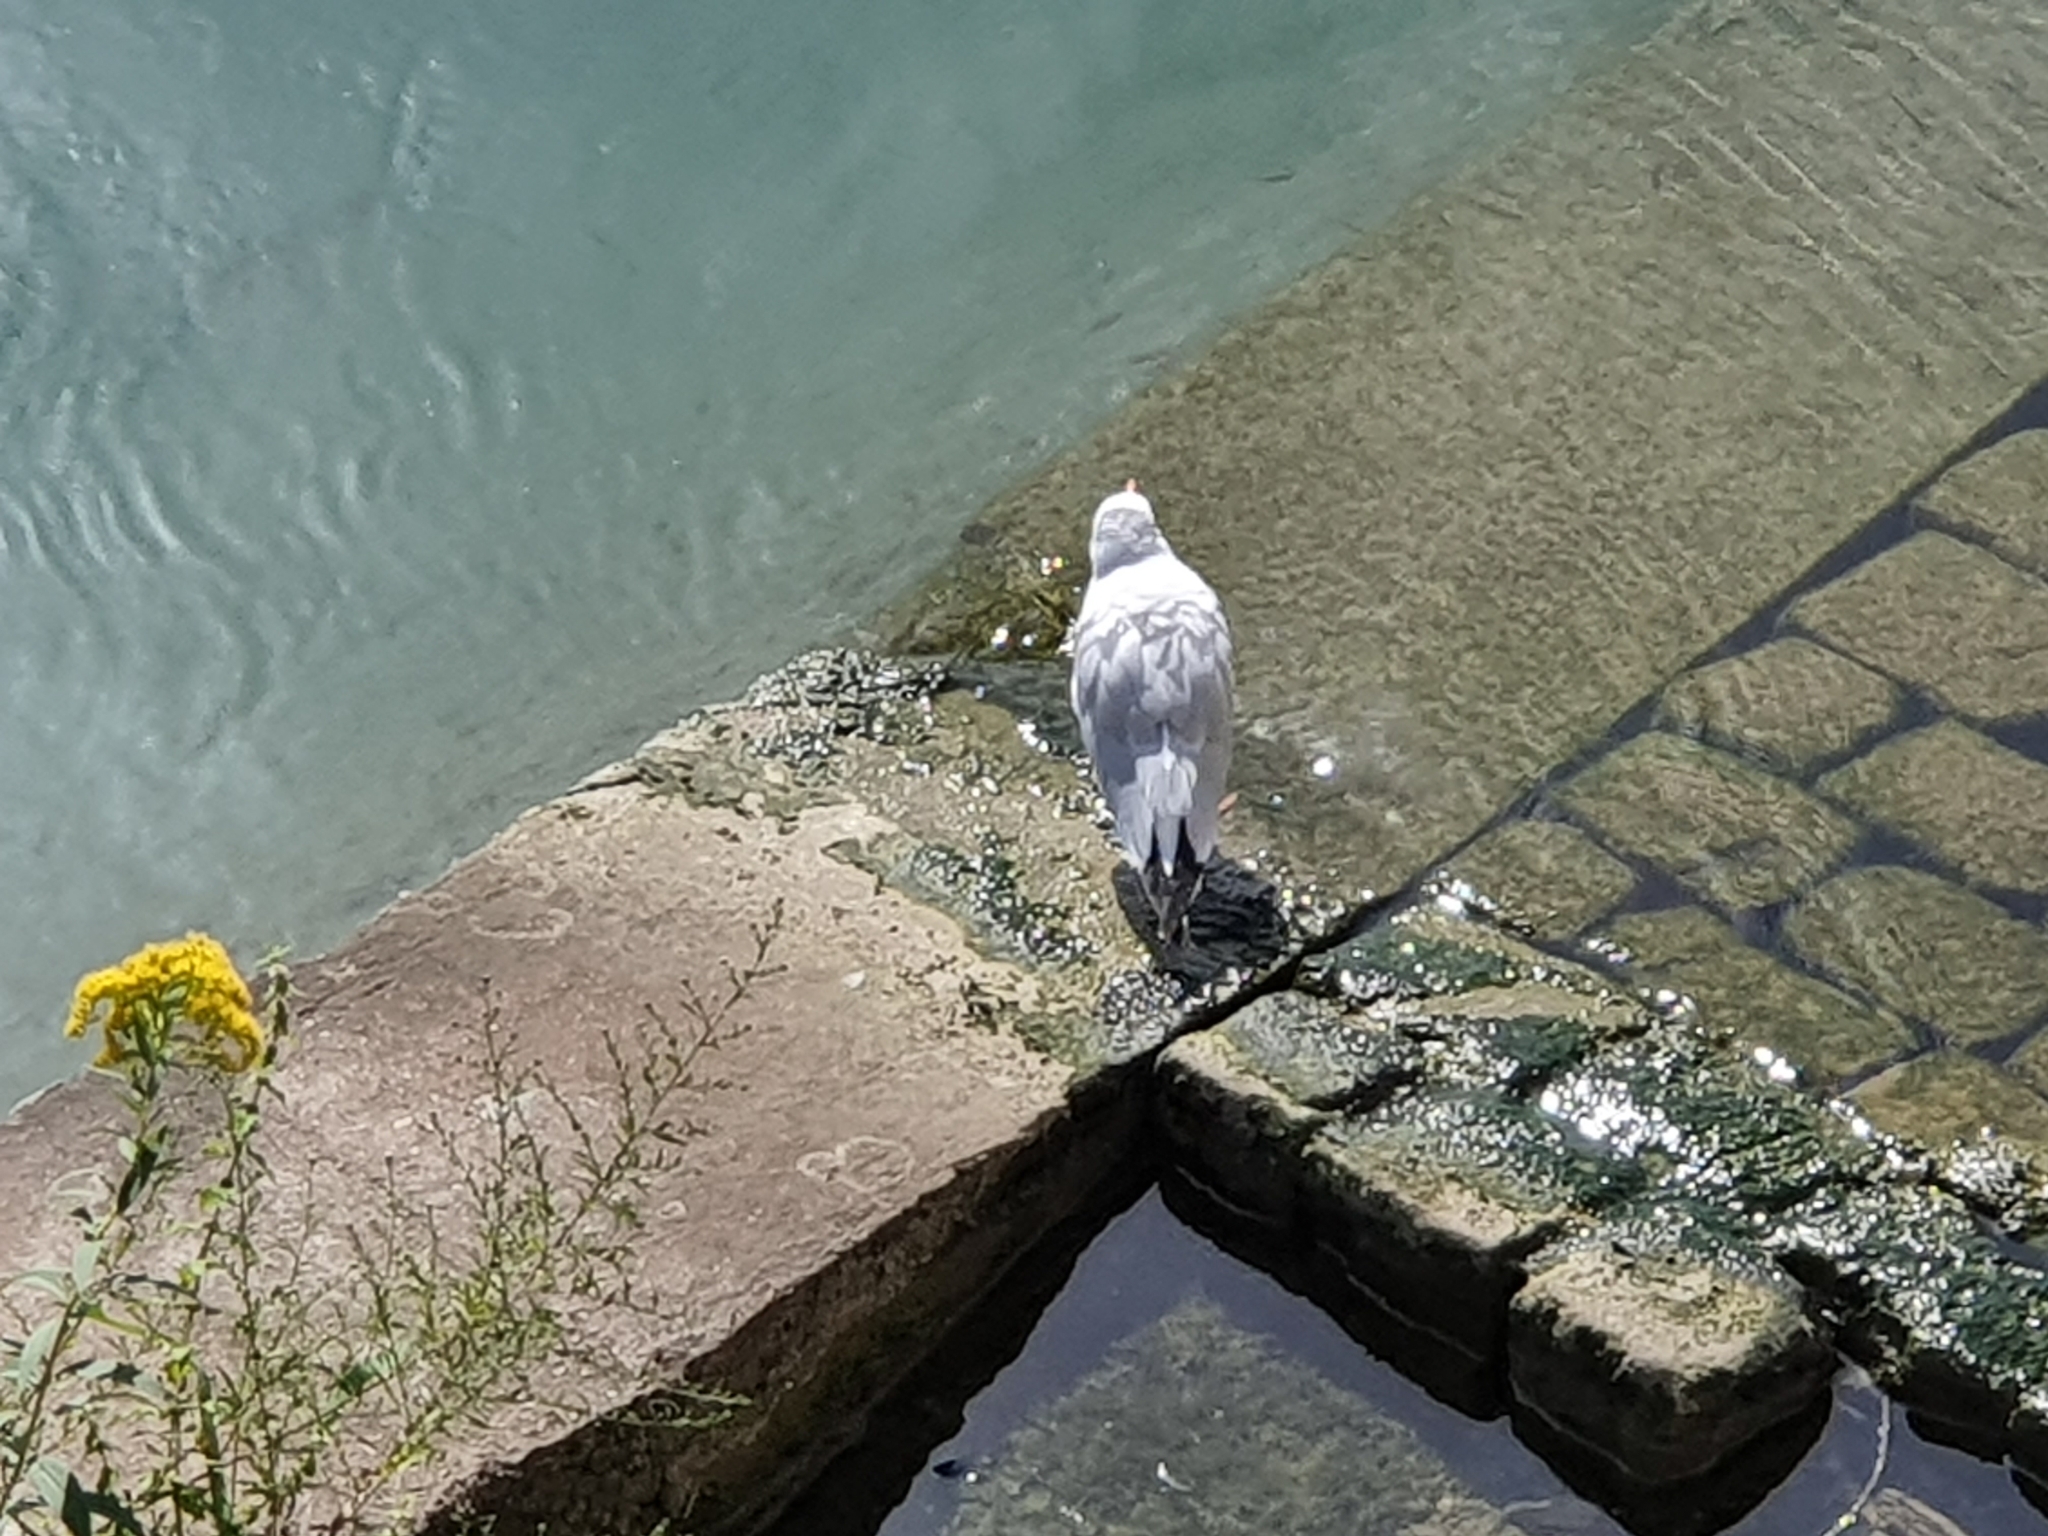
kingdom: Animalia
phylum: Chordata
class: Aves
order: Charadriiformes
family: Laridae
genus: Chroicocephalus
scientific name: Chroicocephalus ridibundus
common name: Black-headed gull
